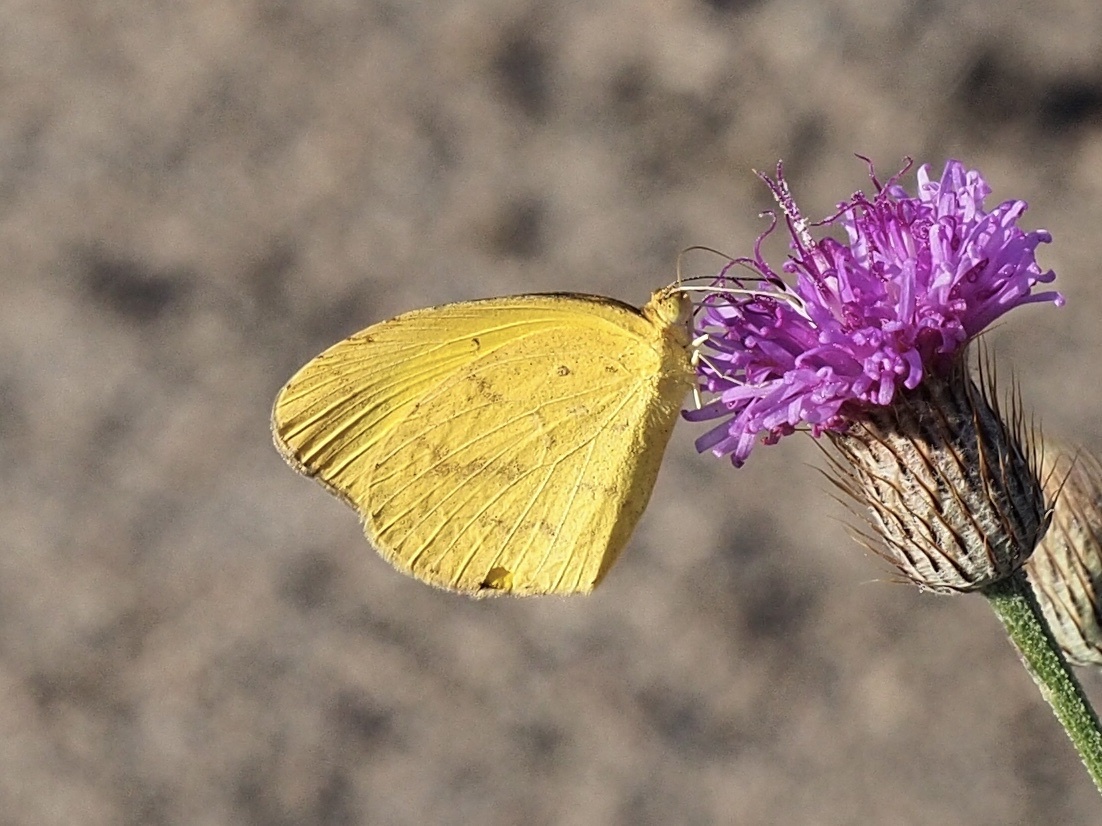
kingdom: Animalia
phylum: Arthropoda
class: Insecta
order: Lepidoptera
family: Pieridae
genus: Eurema
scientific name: Eurema brigitta
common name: Small grass yellow
